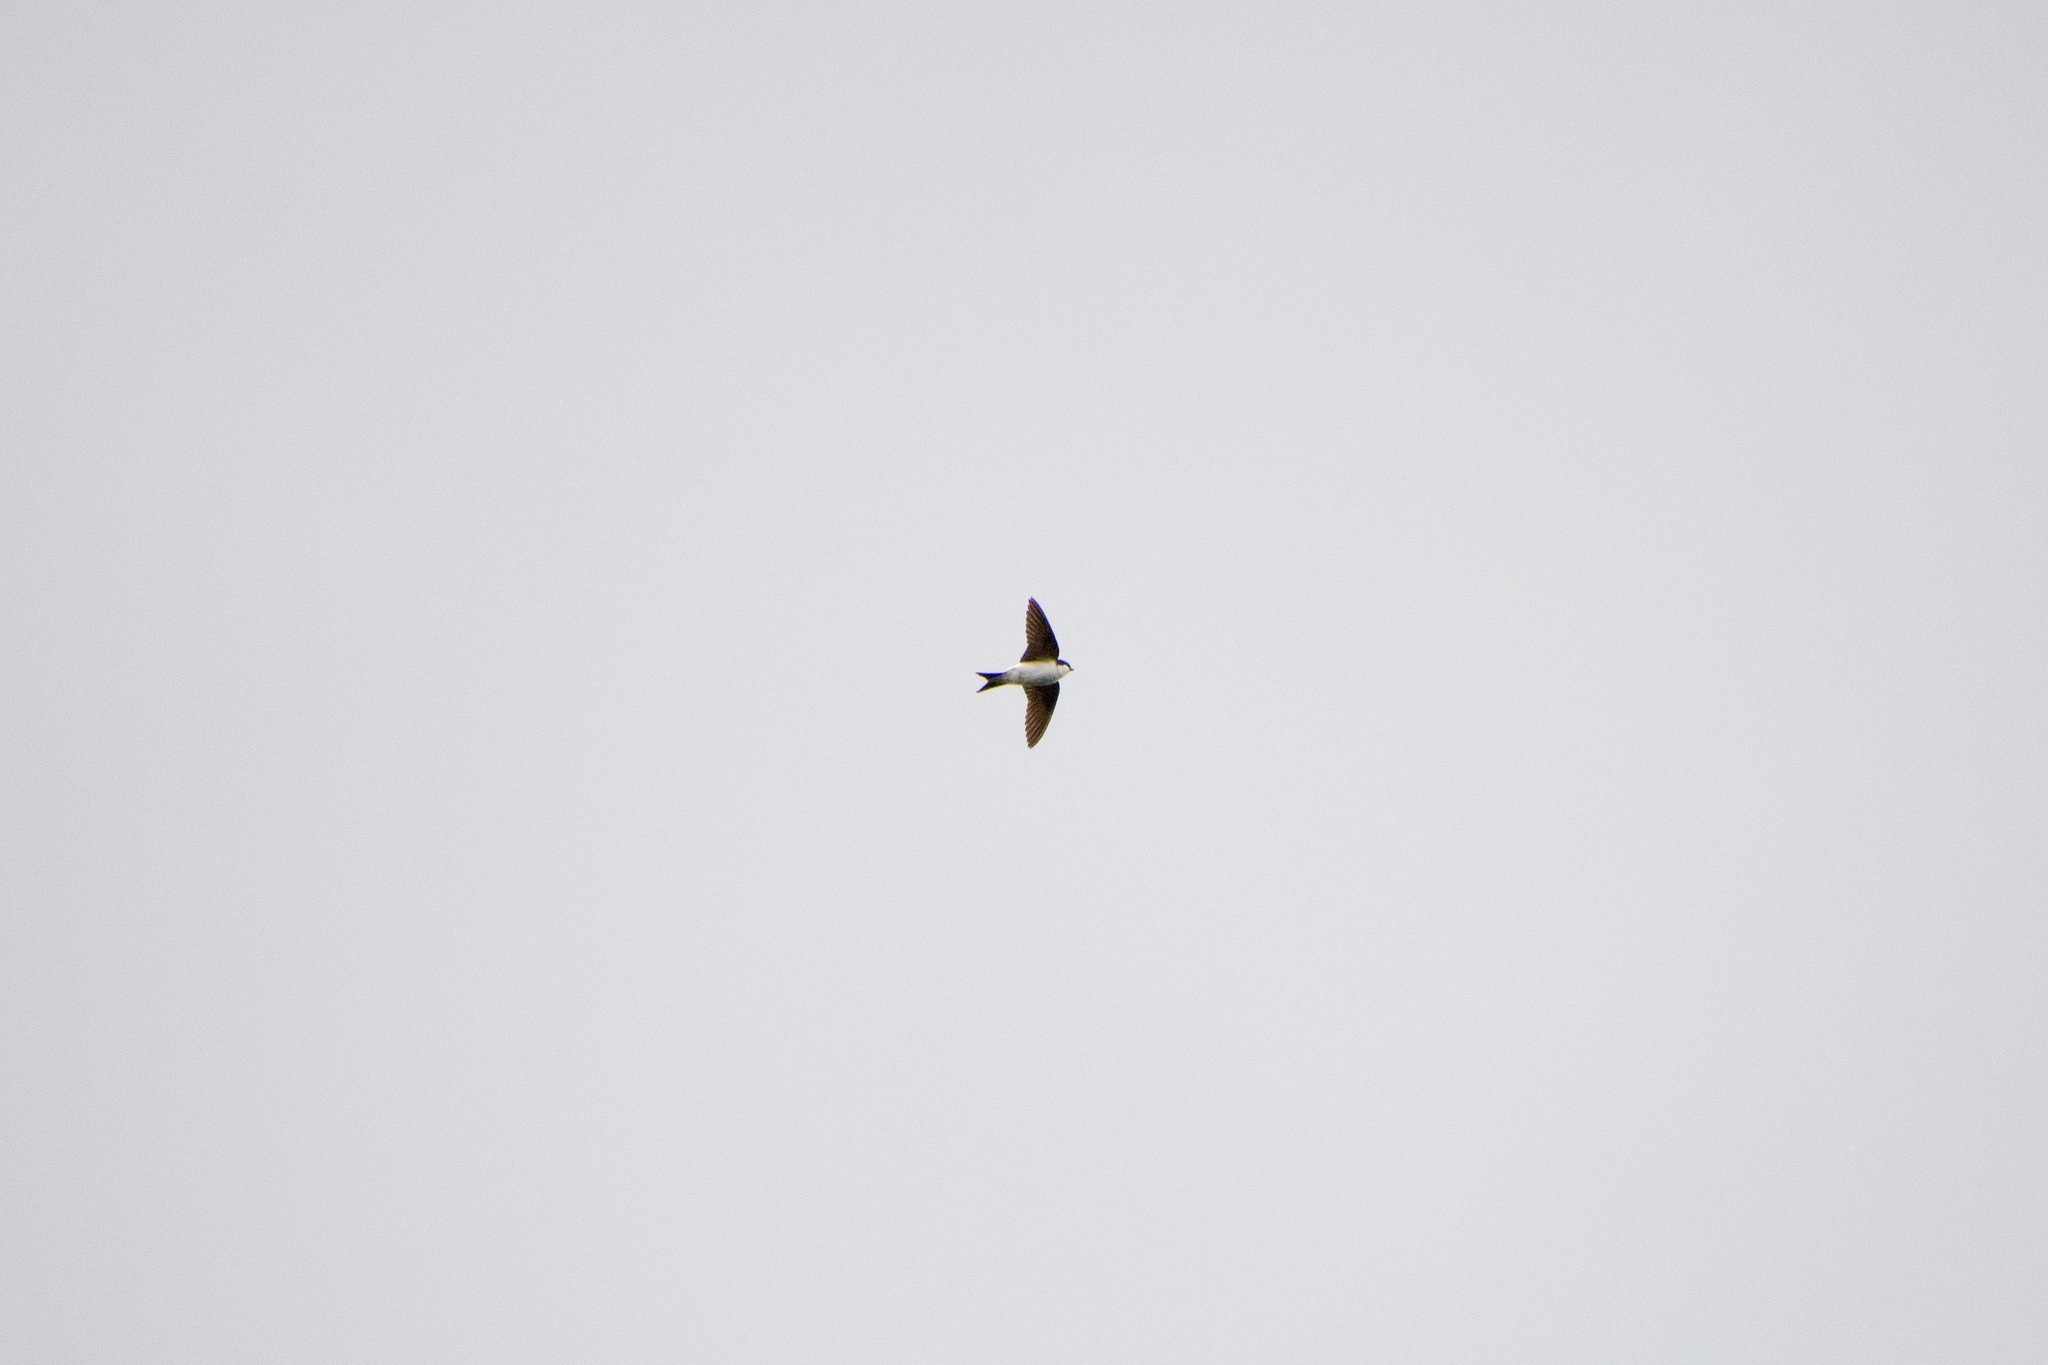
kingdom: Animalia
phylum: Chordata
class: Aves
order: Passeriformes
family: Hirundinidae
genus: Delichon
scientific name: Delichon urbicum
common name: Common house martin
